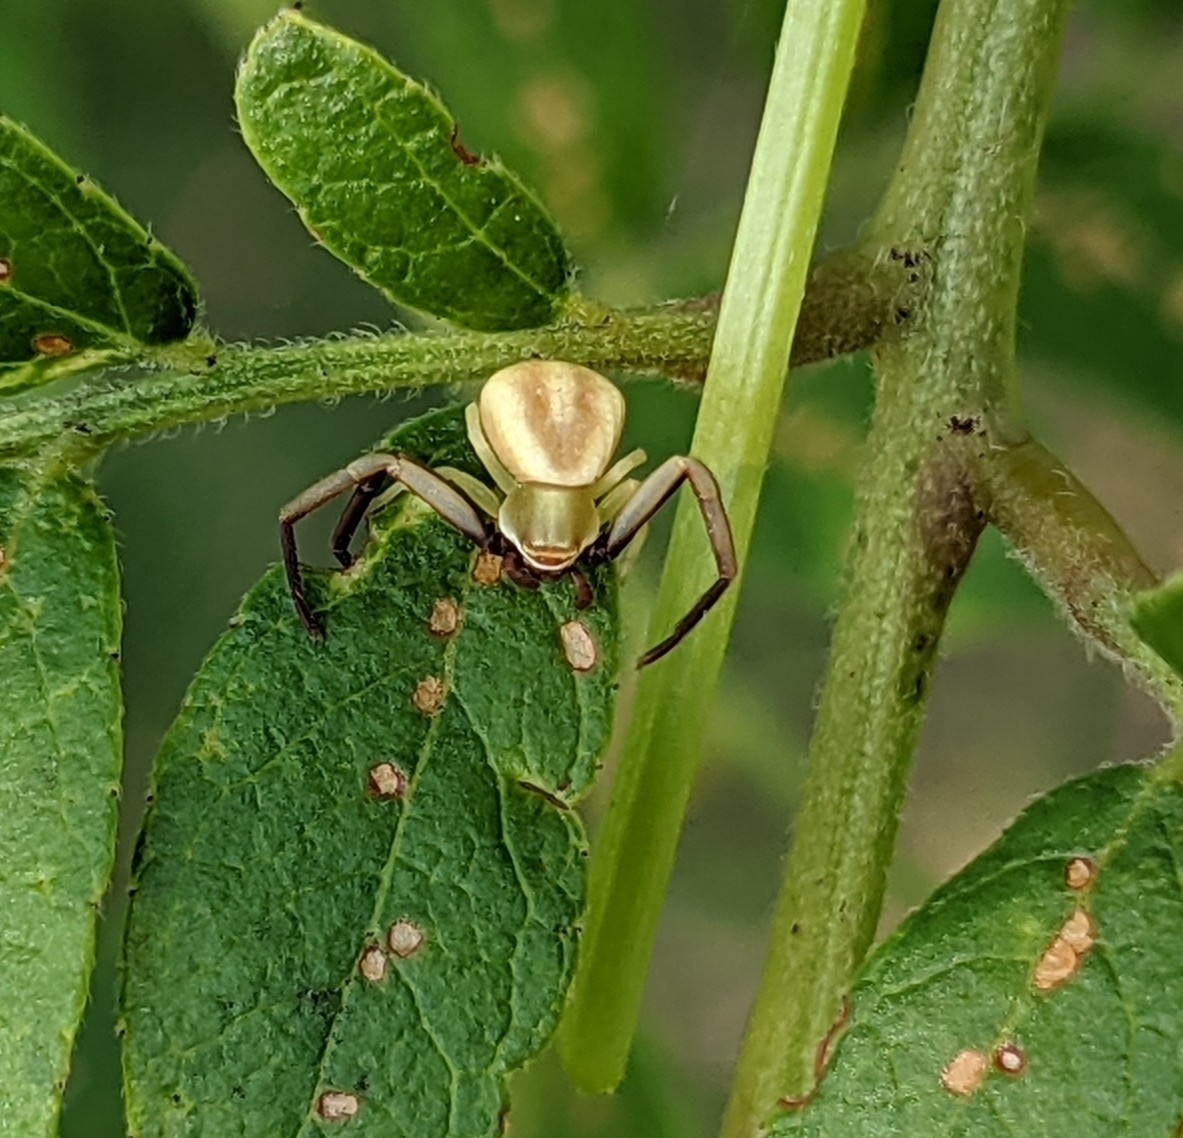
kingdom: Animalia
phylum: Arthropoda
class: Arachnida
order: Araneae
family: Thomisidae
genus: Misumenoides
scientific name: Misumenoides formosipes
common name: White-banded crab spider
